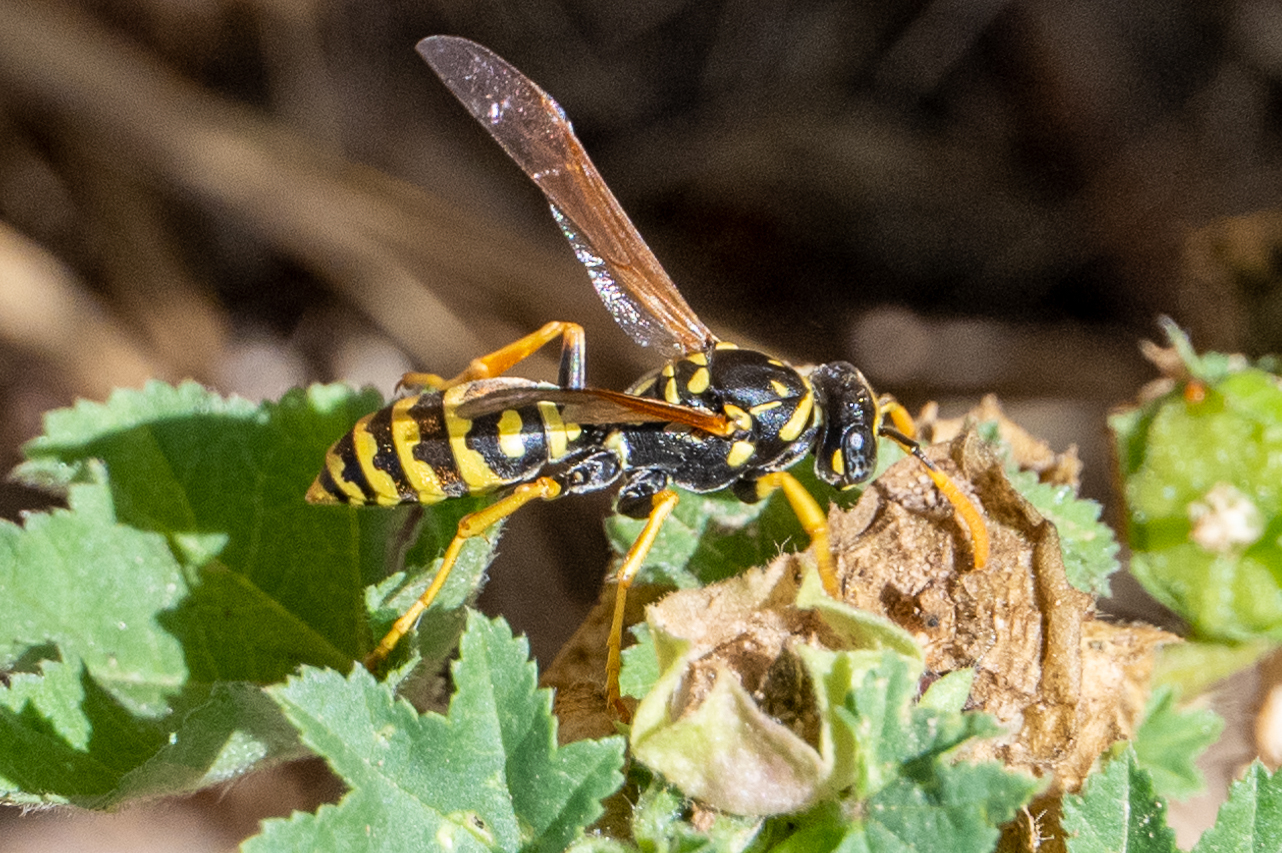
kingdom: Animalia
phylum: Arthropoda
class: Insecta
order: Hymenoptera
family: Eumenidae
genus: Polistes
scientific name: Polistes dominula
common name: Paper wasp
